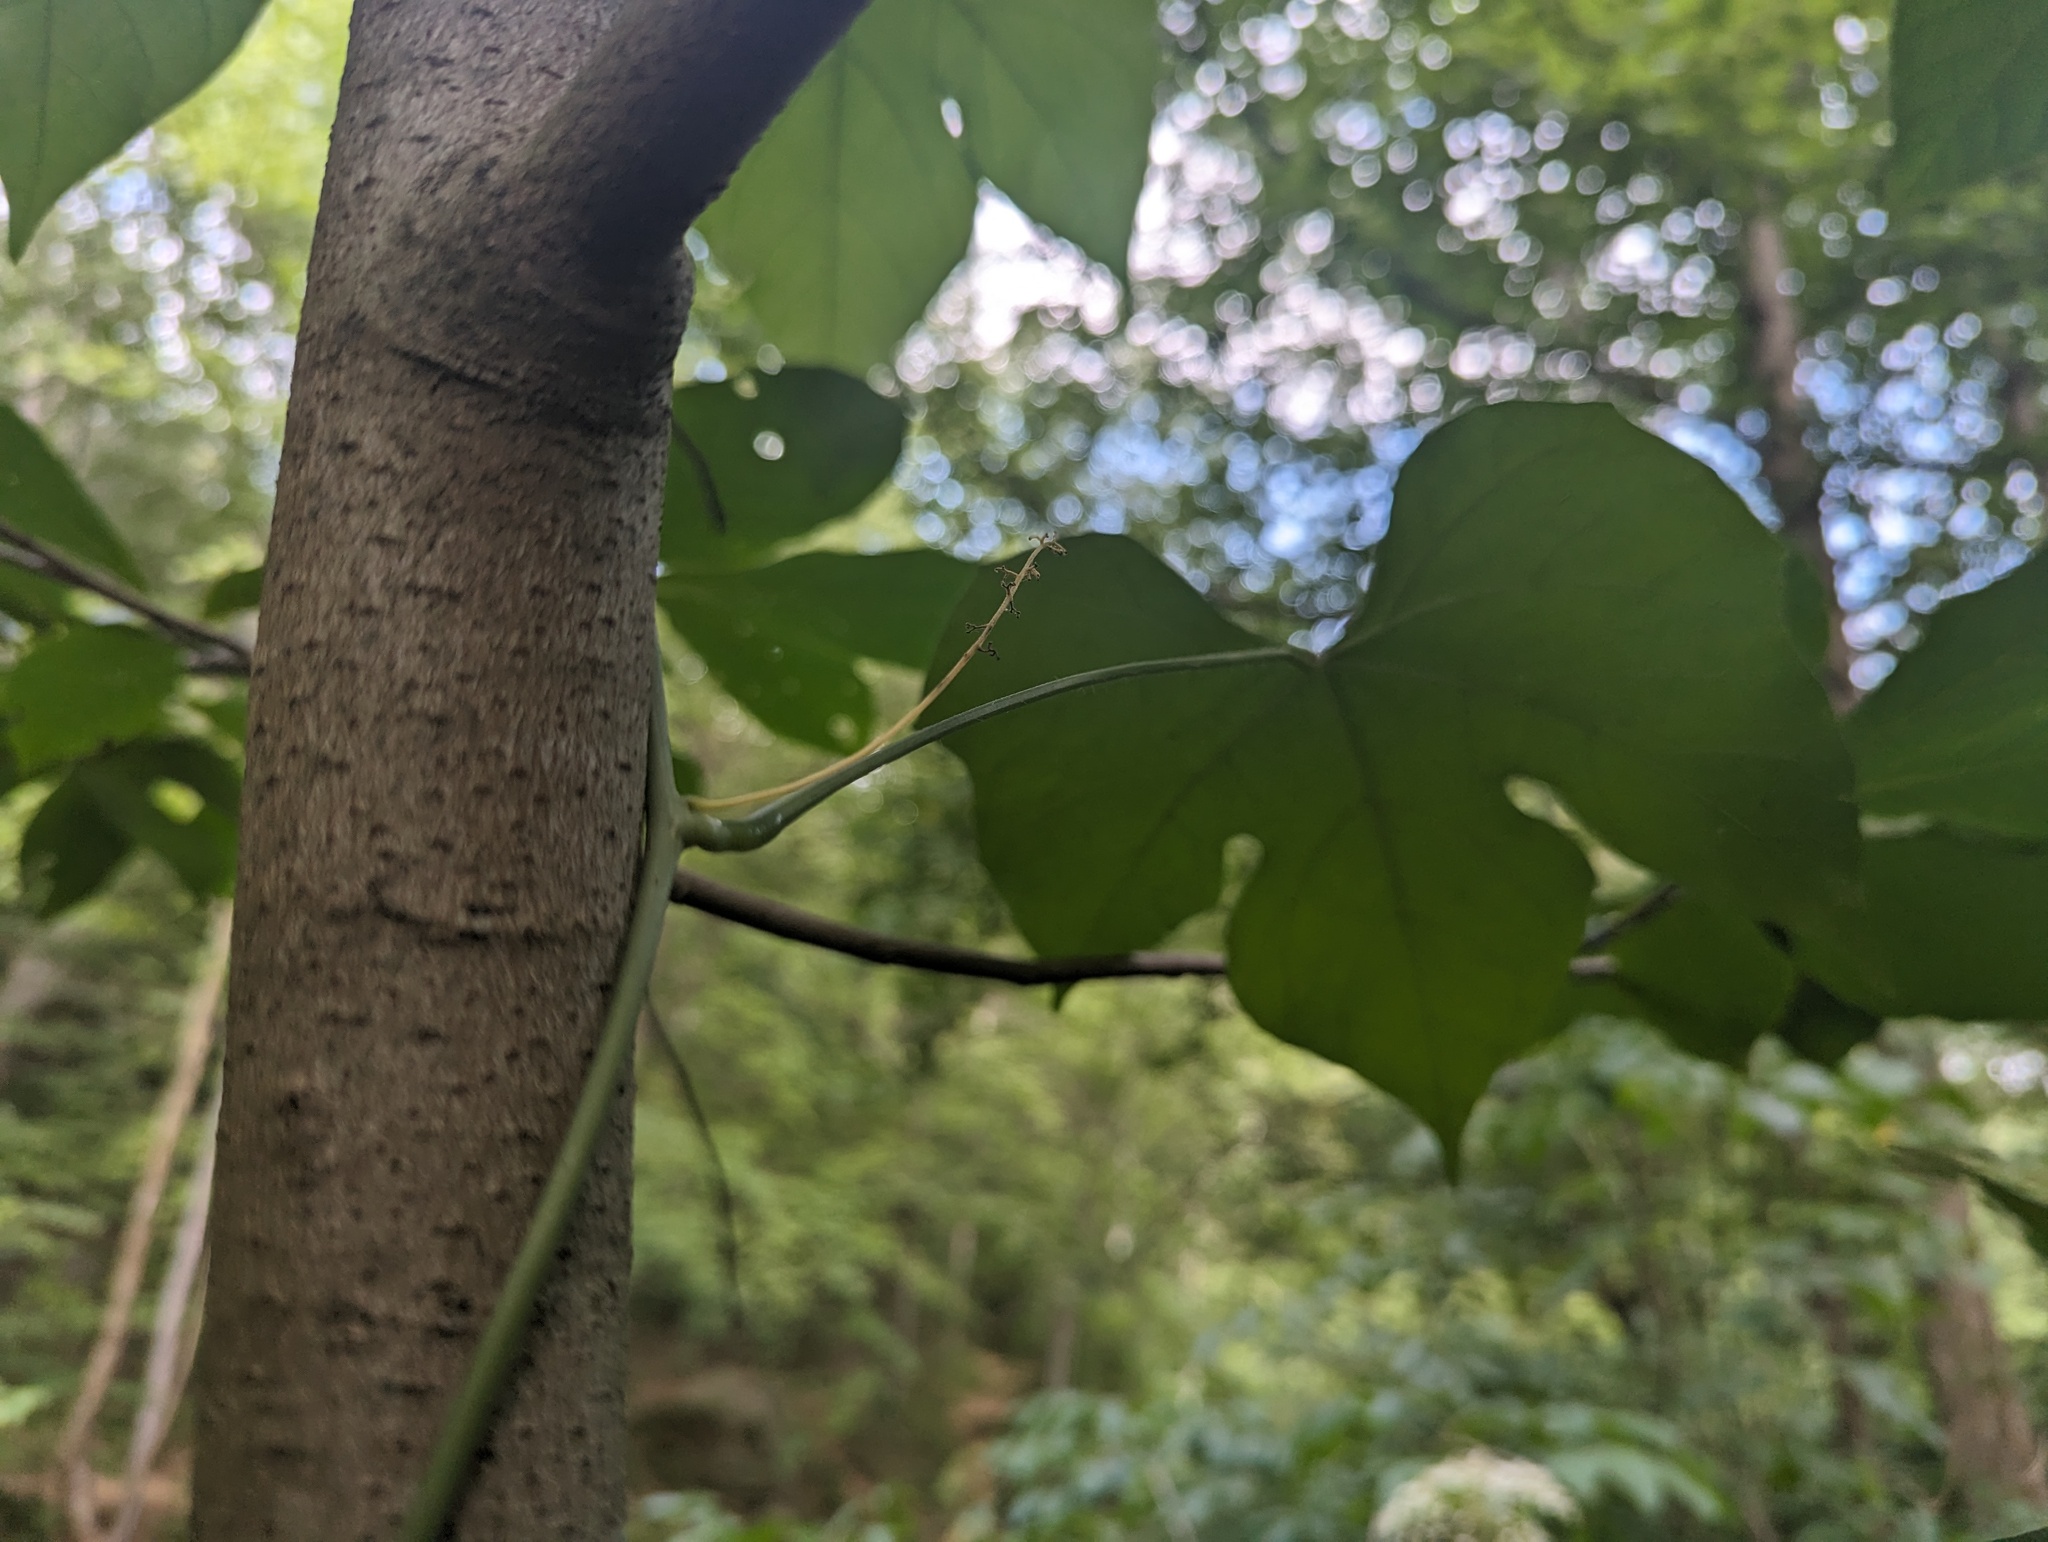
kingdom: Plantae
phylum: Tracheophyta
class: Magnoliopsida
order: Ranunculales
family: Menispermaceae
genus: Calycocarpum
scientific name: Calycocarpum lyonii
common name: Cupseed
